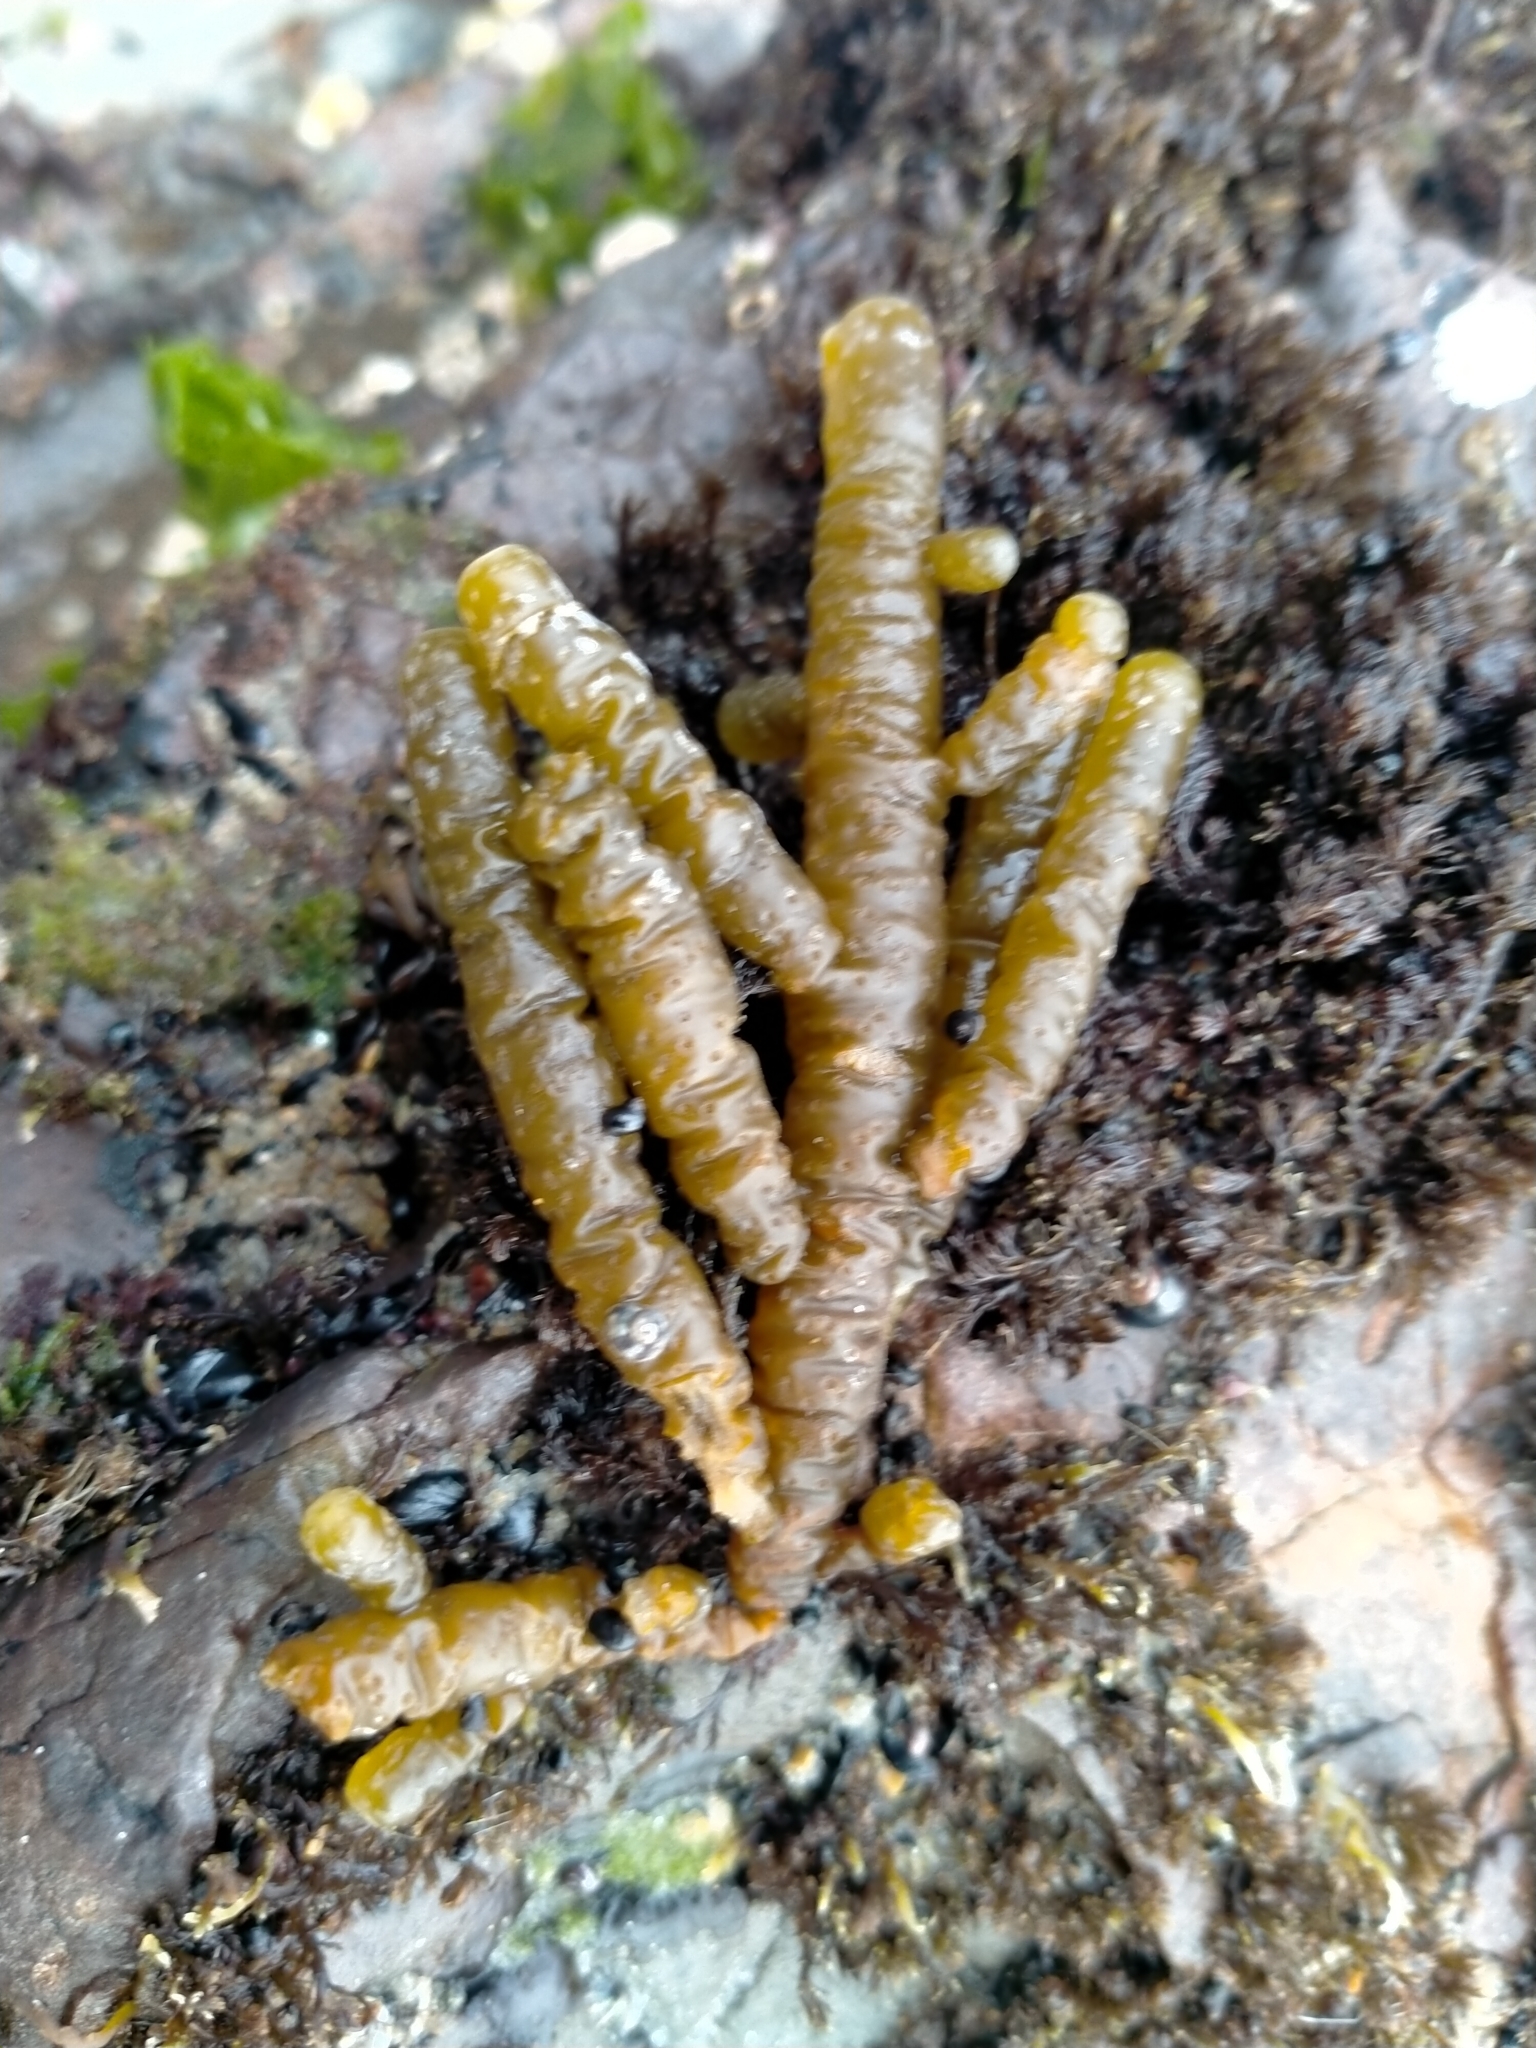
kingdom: Chromista
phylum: Ochrophyta
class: Phaeophyceae
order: Scytothamnales
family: Splachnidiaceae
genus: Splachnidium
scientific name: Splachnidium rugosum
